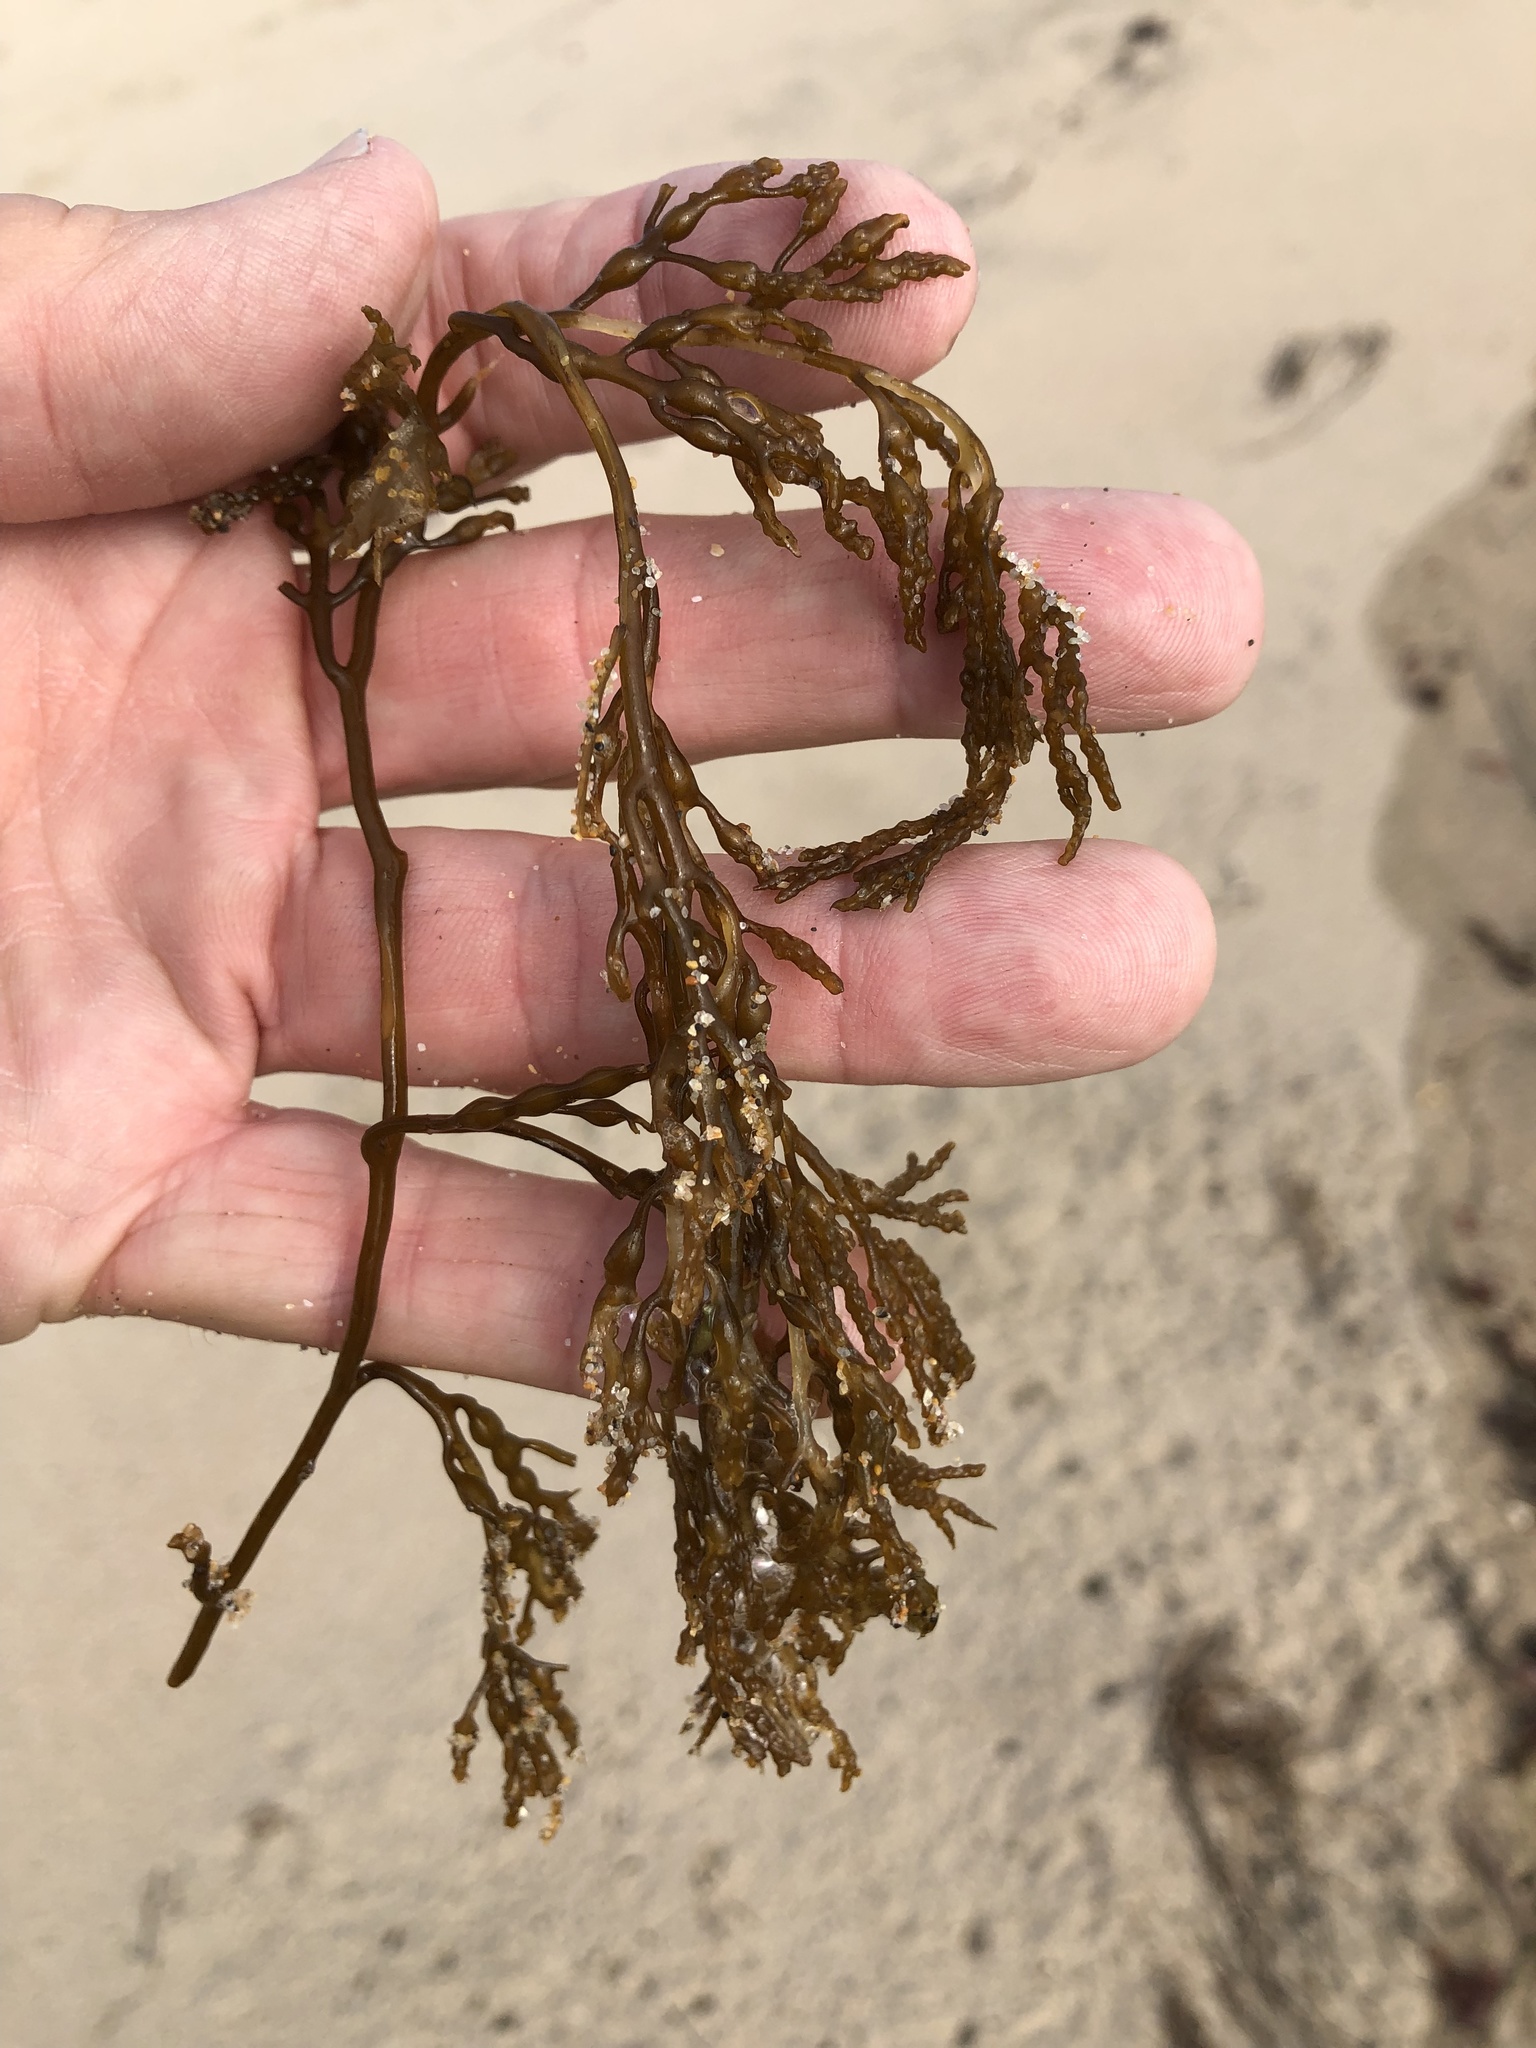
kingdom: Chromista
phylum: Ochrophyta
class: Phaeophyceae
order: Fucales
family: Sargassaceae
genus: Stephanocystis
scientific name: Stephanocystis
